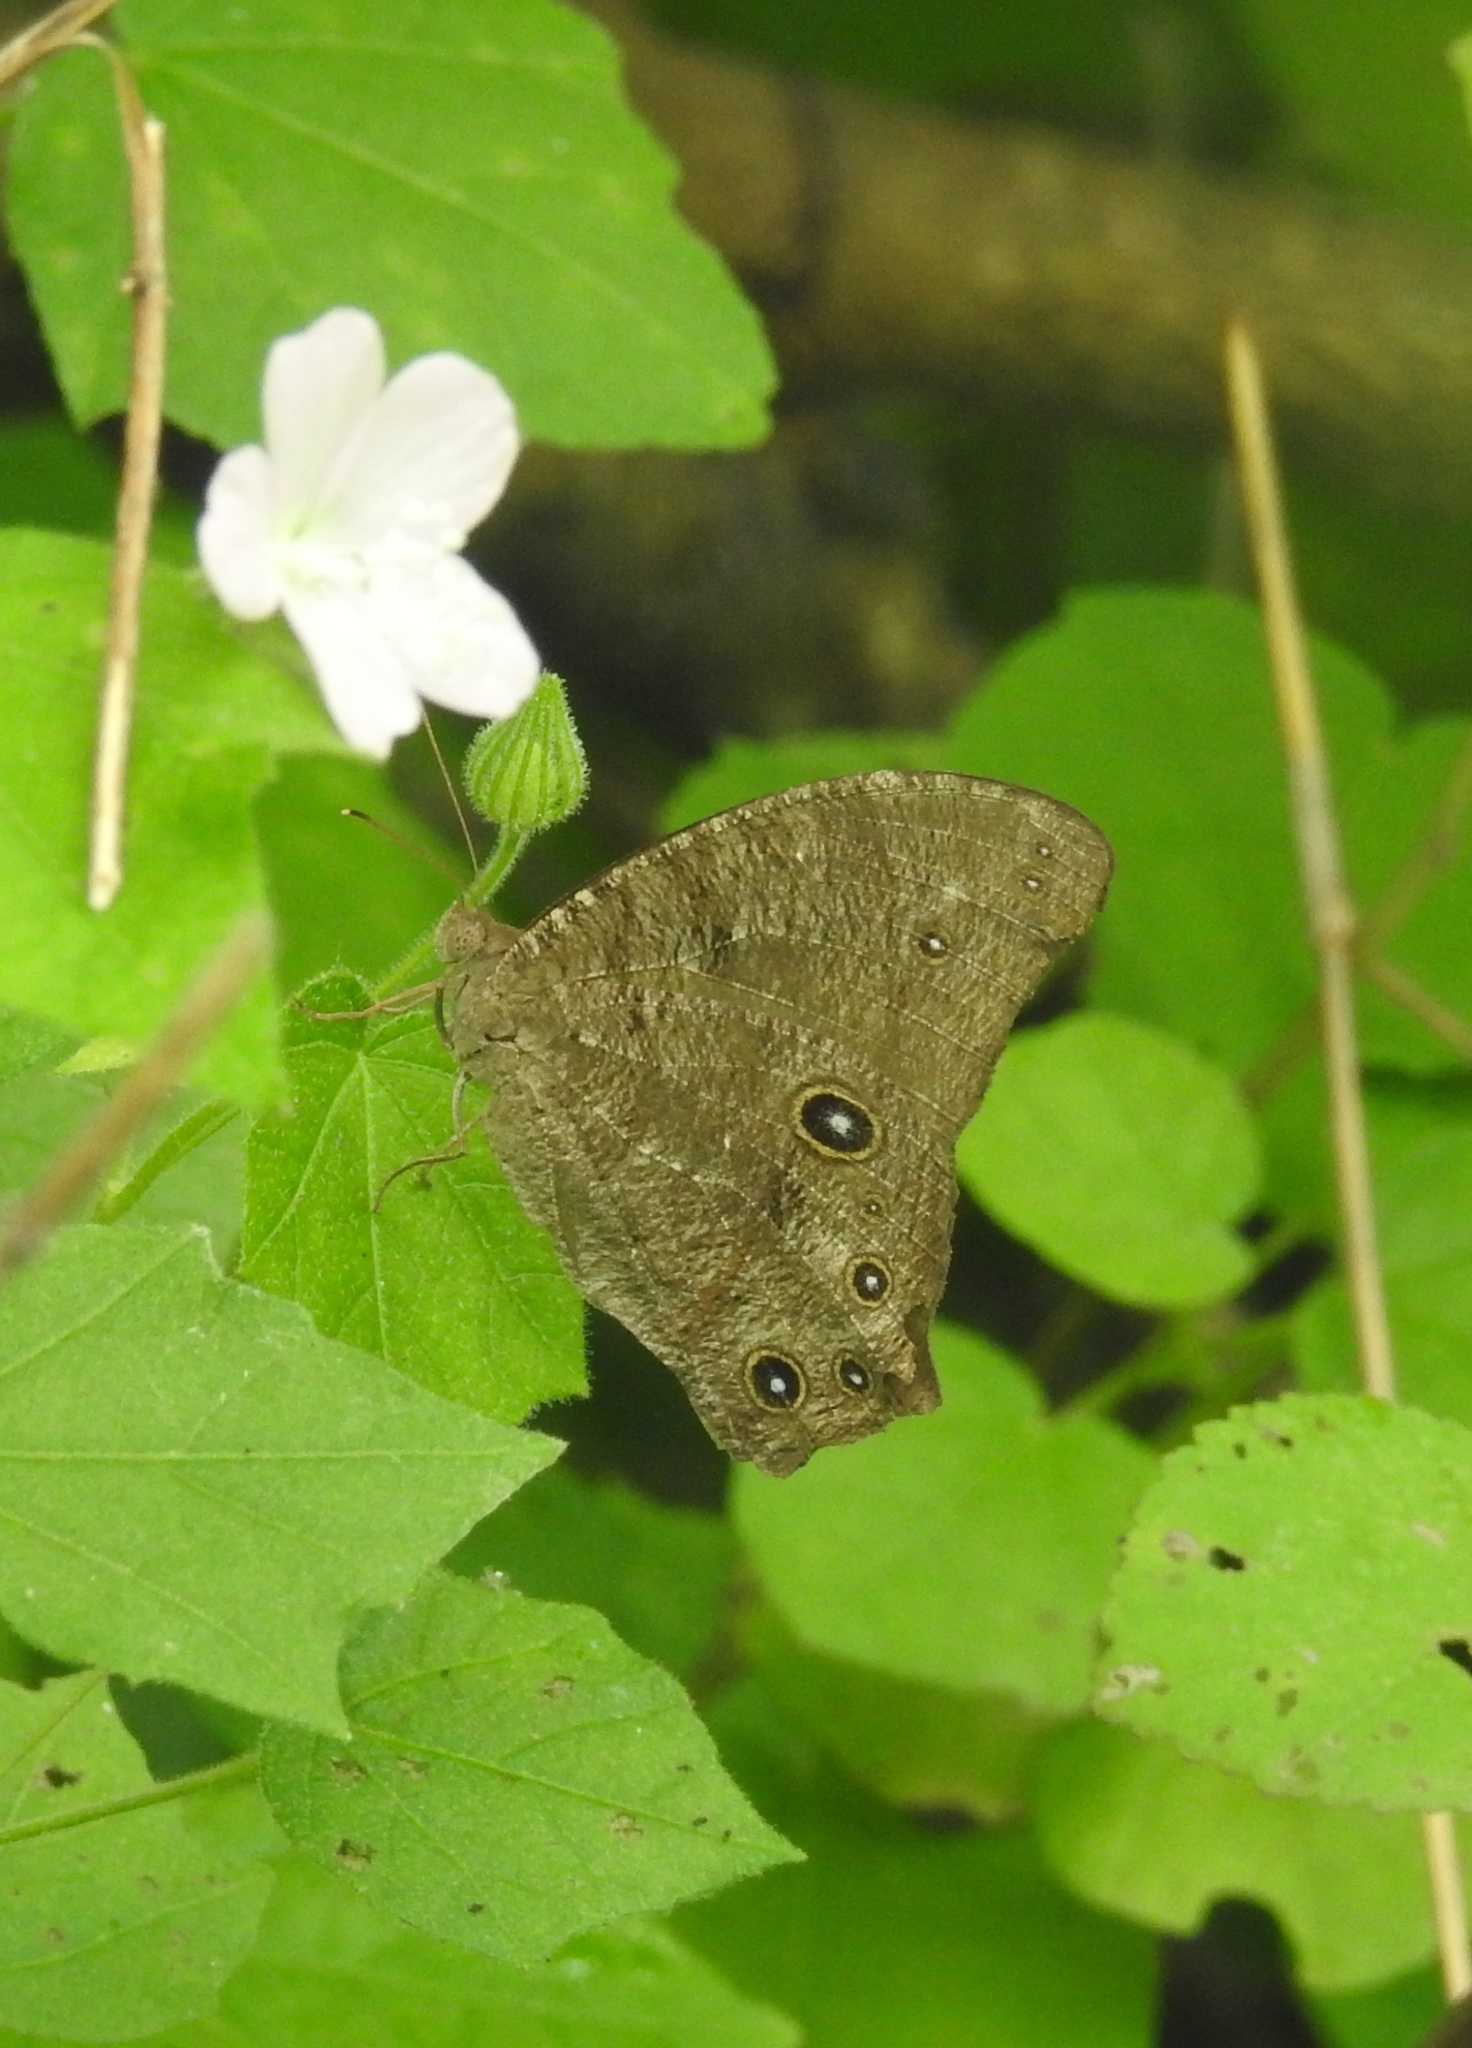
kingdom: Animalia
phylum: Arthropoda
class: Insecta
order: Lepidoptera
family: Nymphalidae
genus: Melanitis
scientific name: Melanitis leda
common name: Twilight brown
